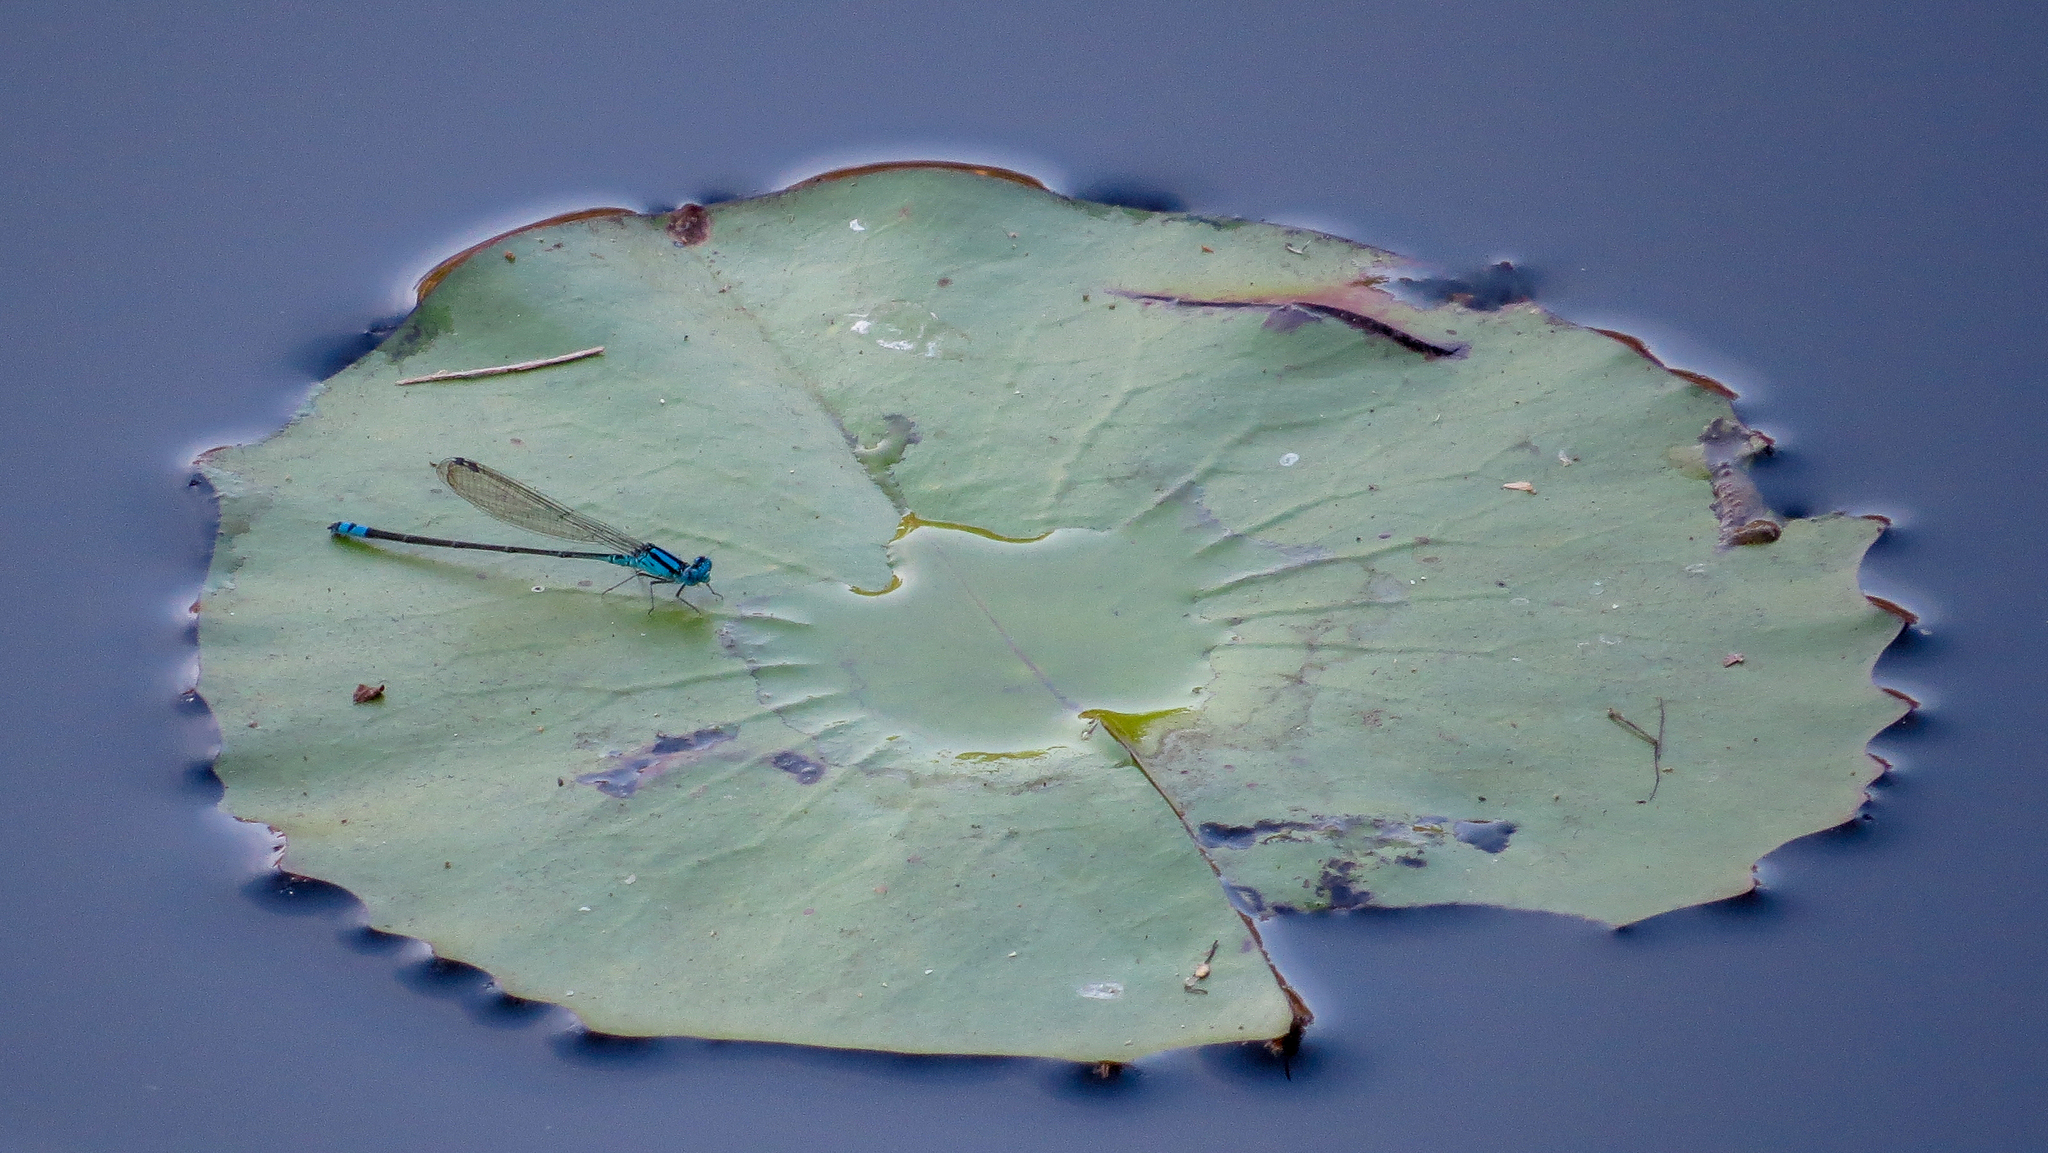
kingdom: Animalia
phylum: Arthropoda
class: Insecta
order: Odonata
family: Coenagrionidae
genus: Pseudagrion
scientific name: Pseudagrion microcephalum
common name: Blue riverdamsel
